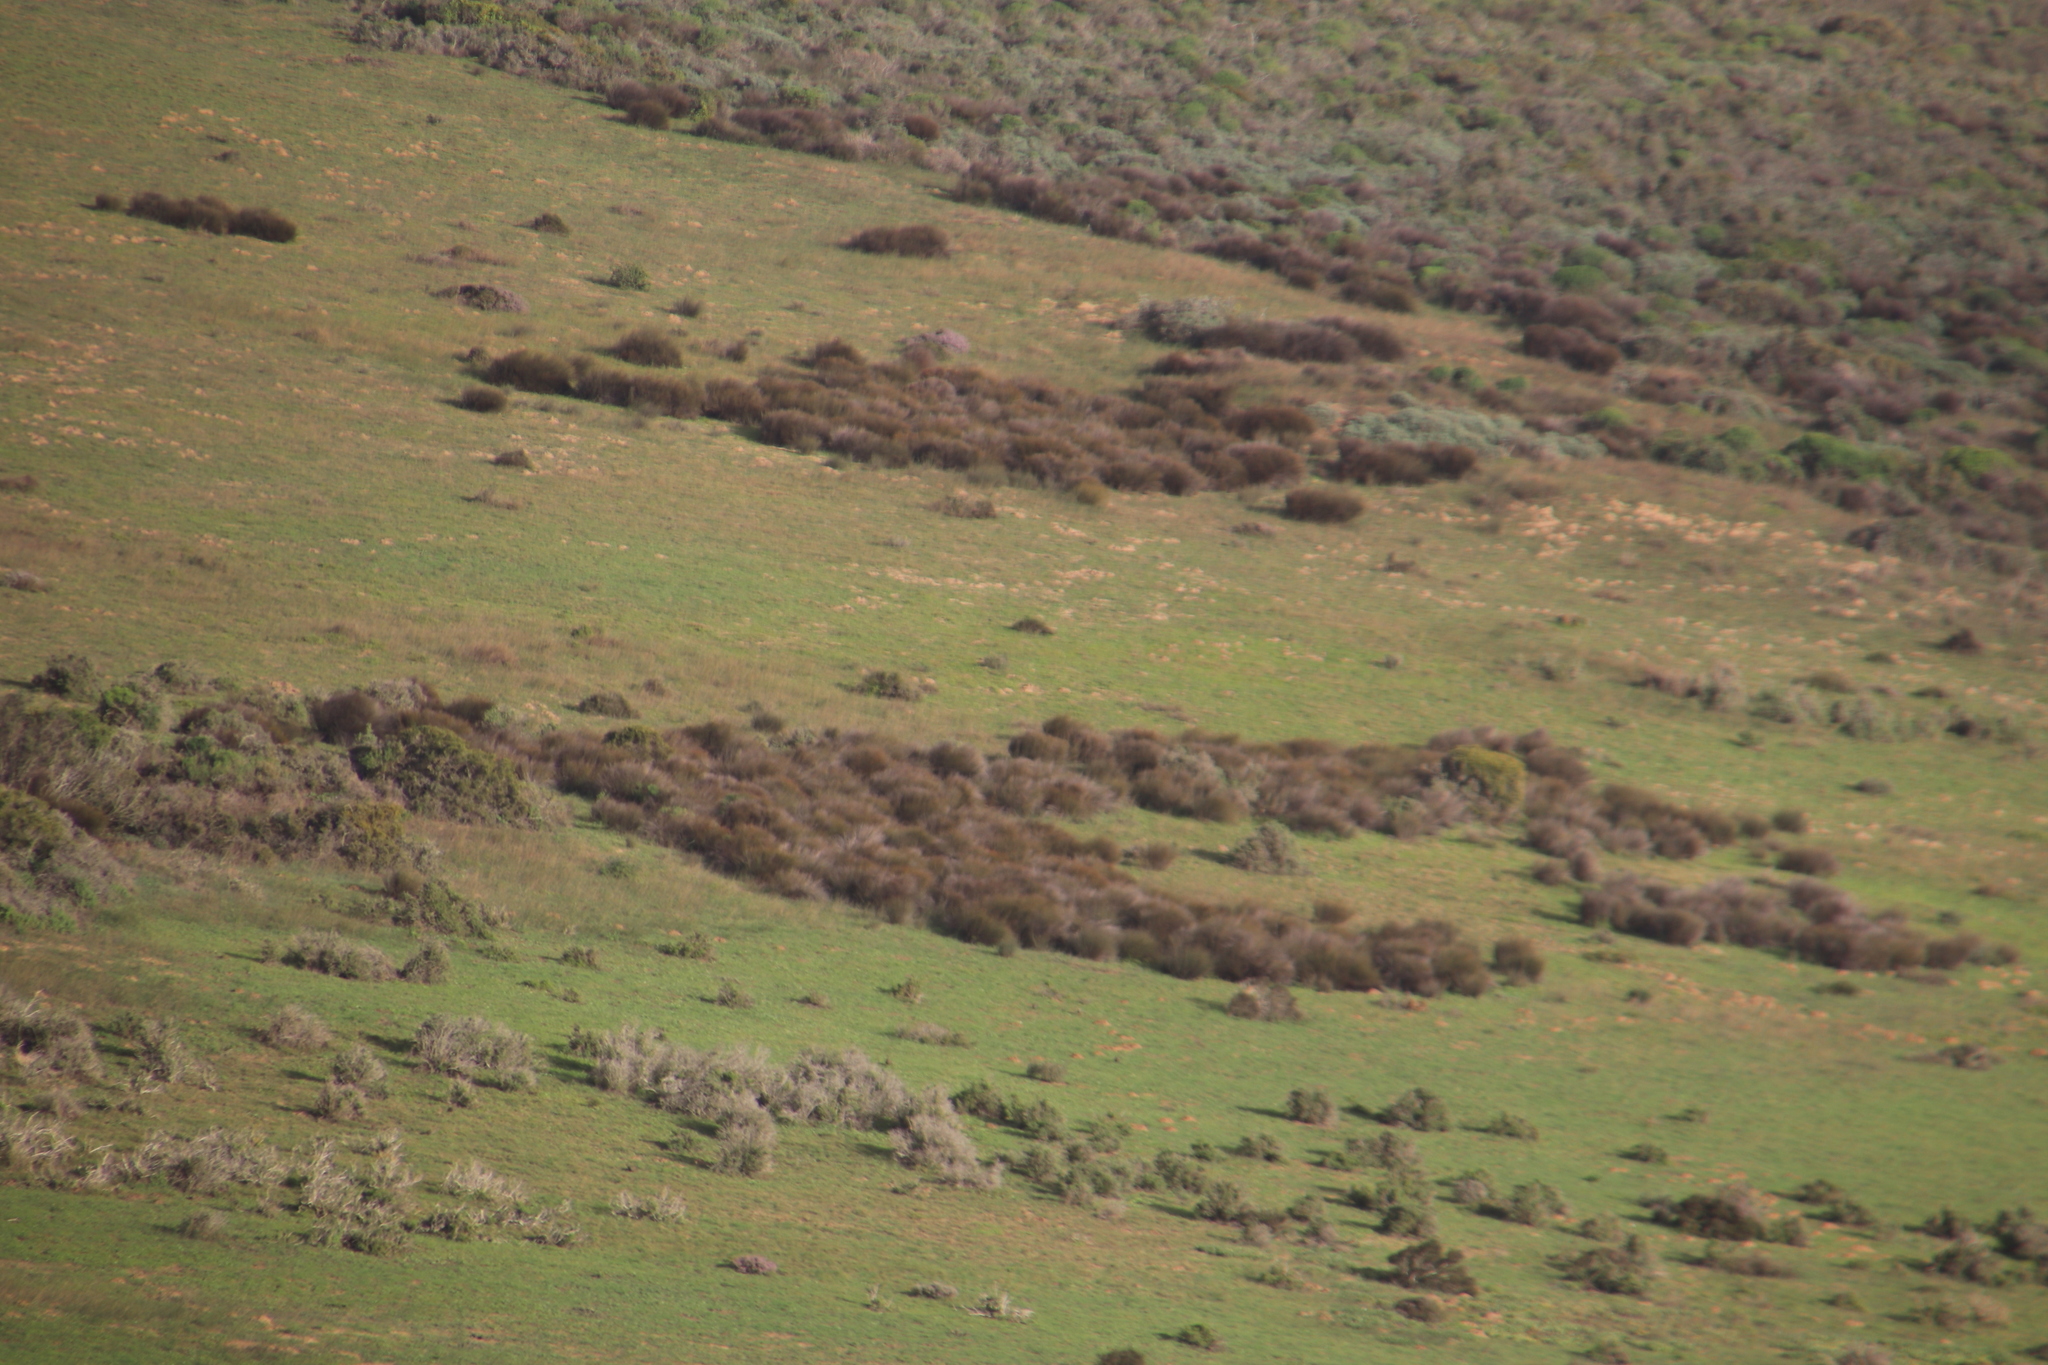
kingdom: Plantae
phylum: Tracheophyta
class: Liliopsida
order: Poales
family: Restionaceae
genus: Willdenowia
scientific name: Willdenowia incurvata
